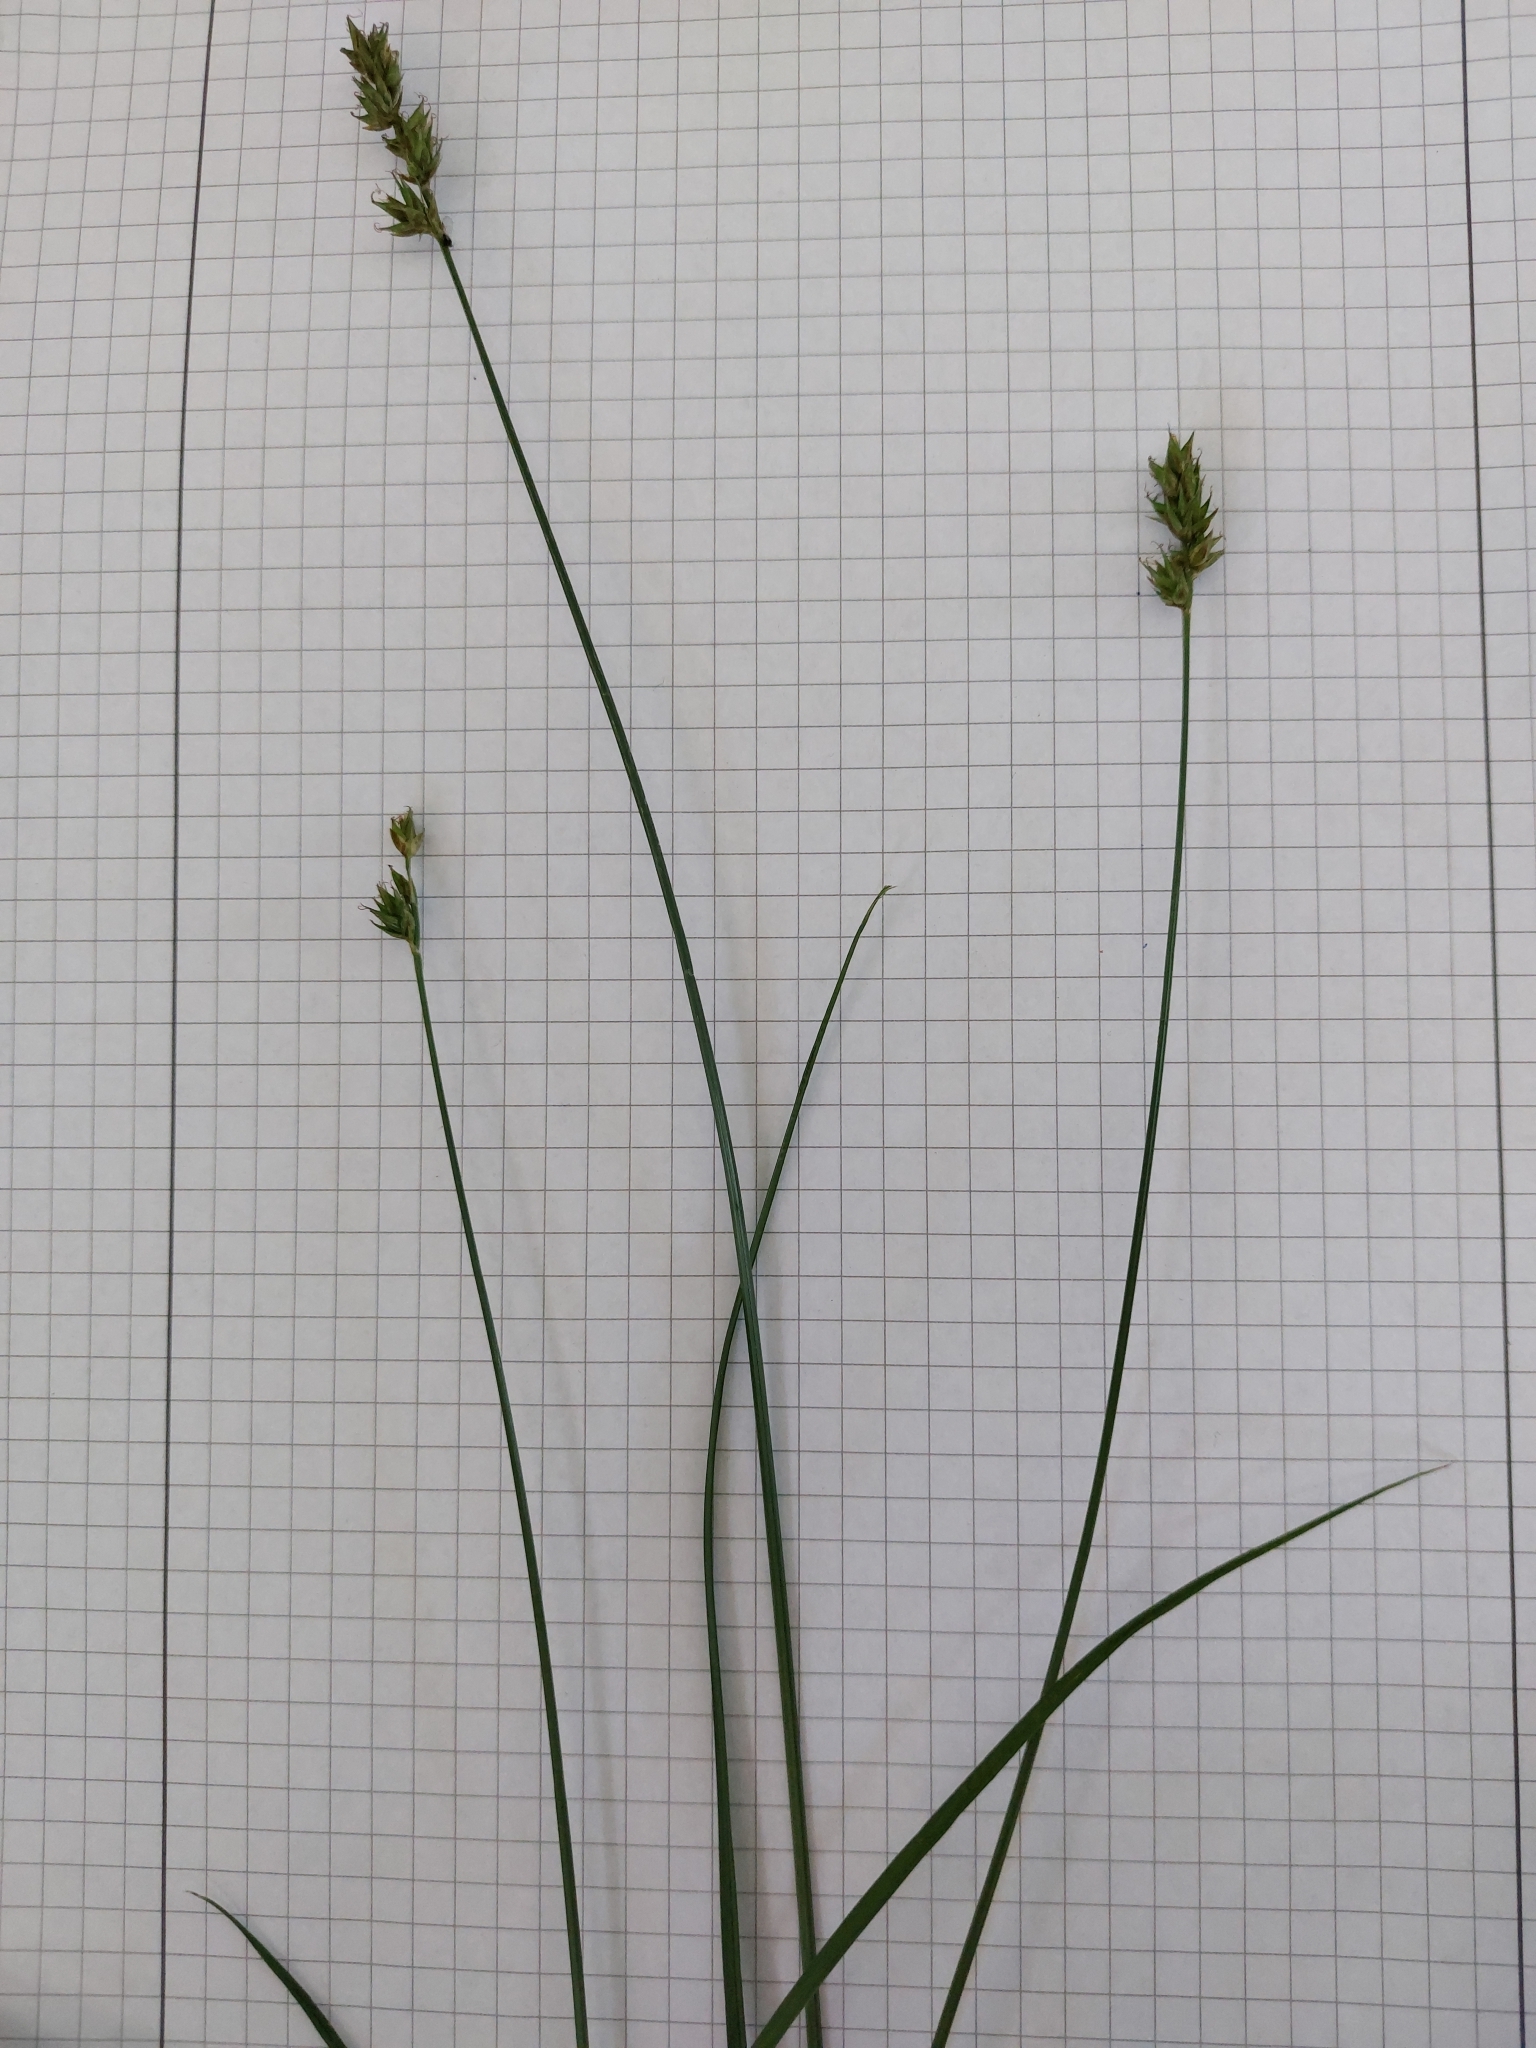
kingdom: Plantae
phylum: Tracheophyta
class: Liliopsida
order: Poales
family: Cyperaceae
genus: Carex
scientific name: Carex spicata
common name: Spiked sedge
